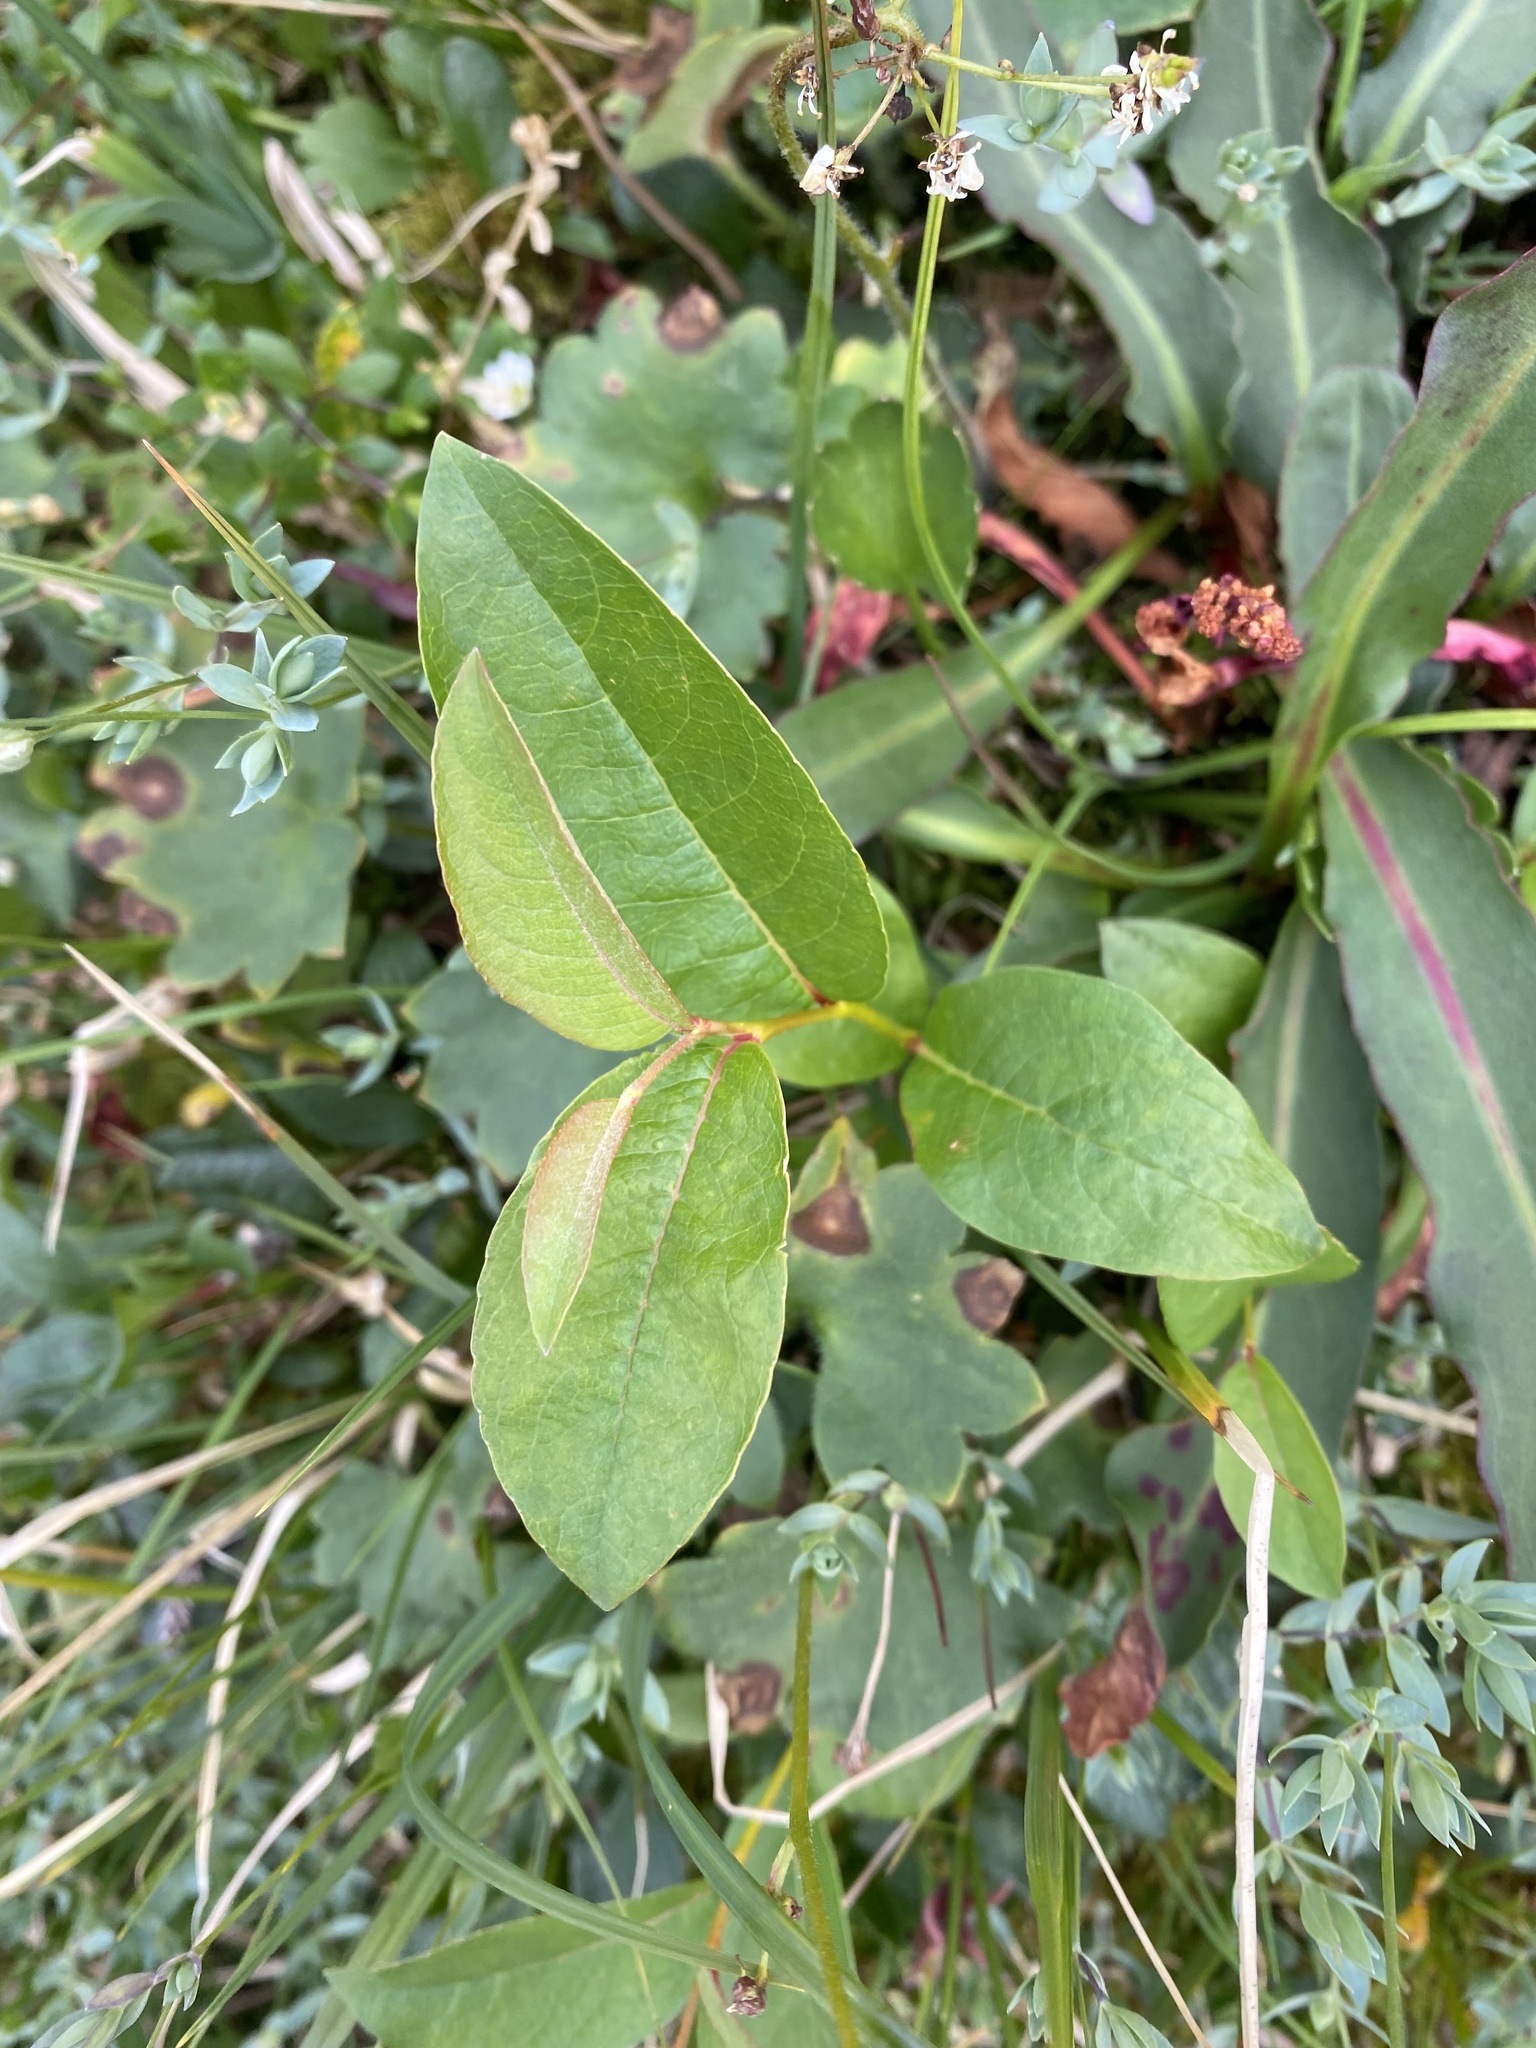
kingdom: Plantae
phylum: Tracheophyta
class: Magnoliopsida
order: Malpighiales
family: Salicaceae
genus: Salix
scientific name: Salix hastata
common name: Halberd willow
